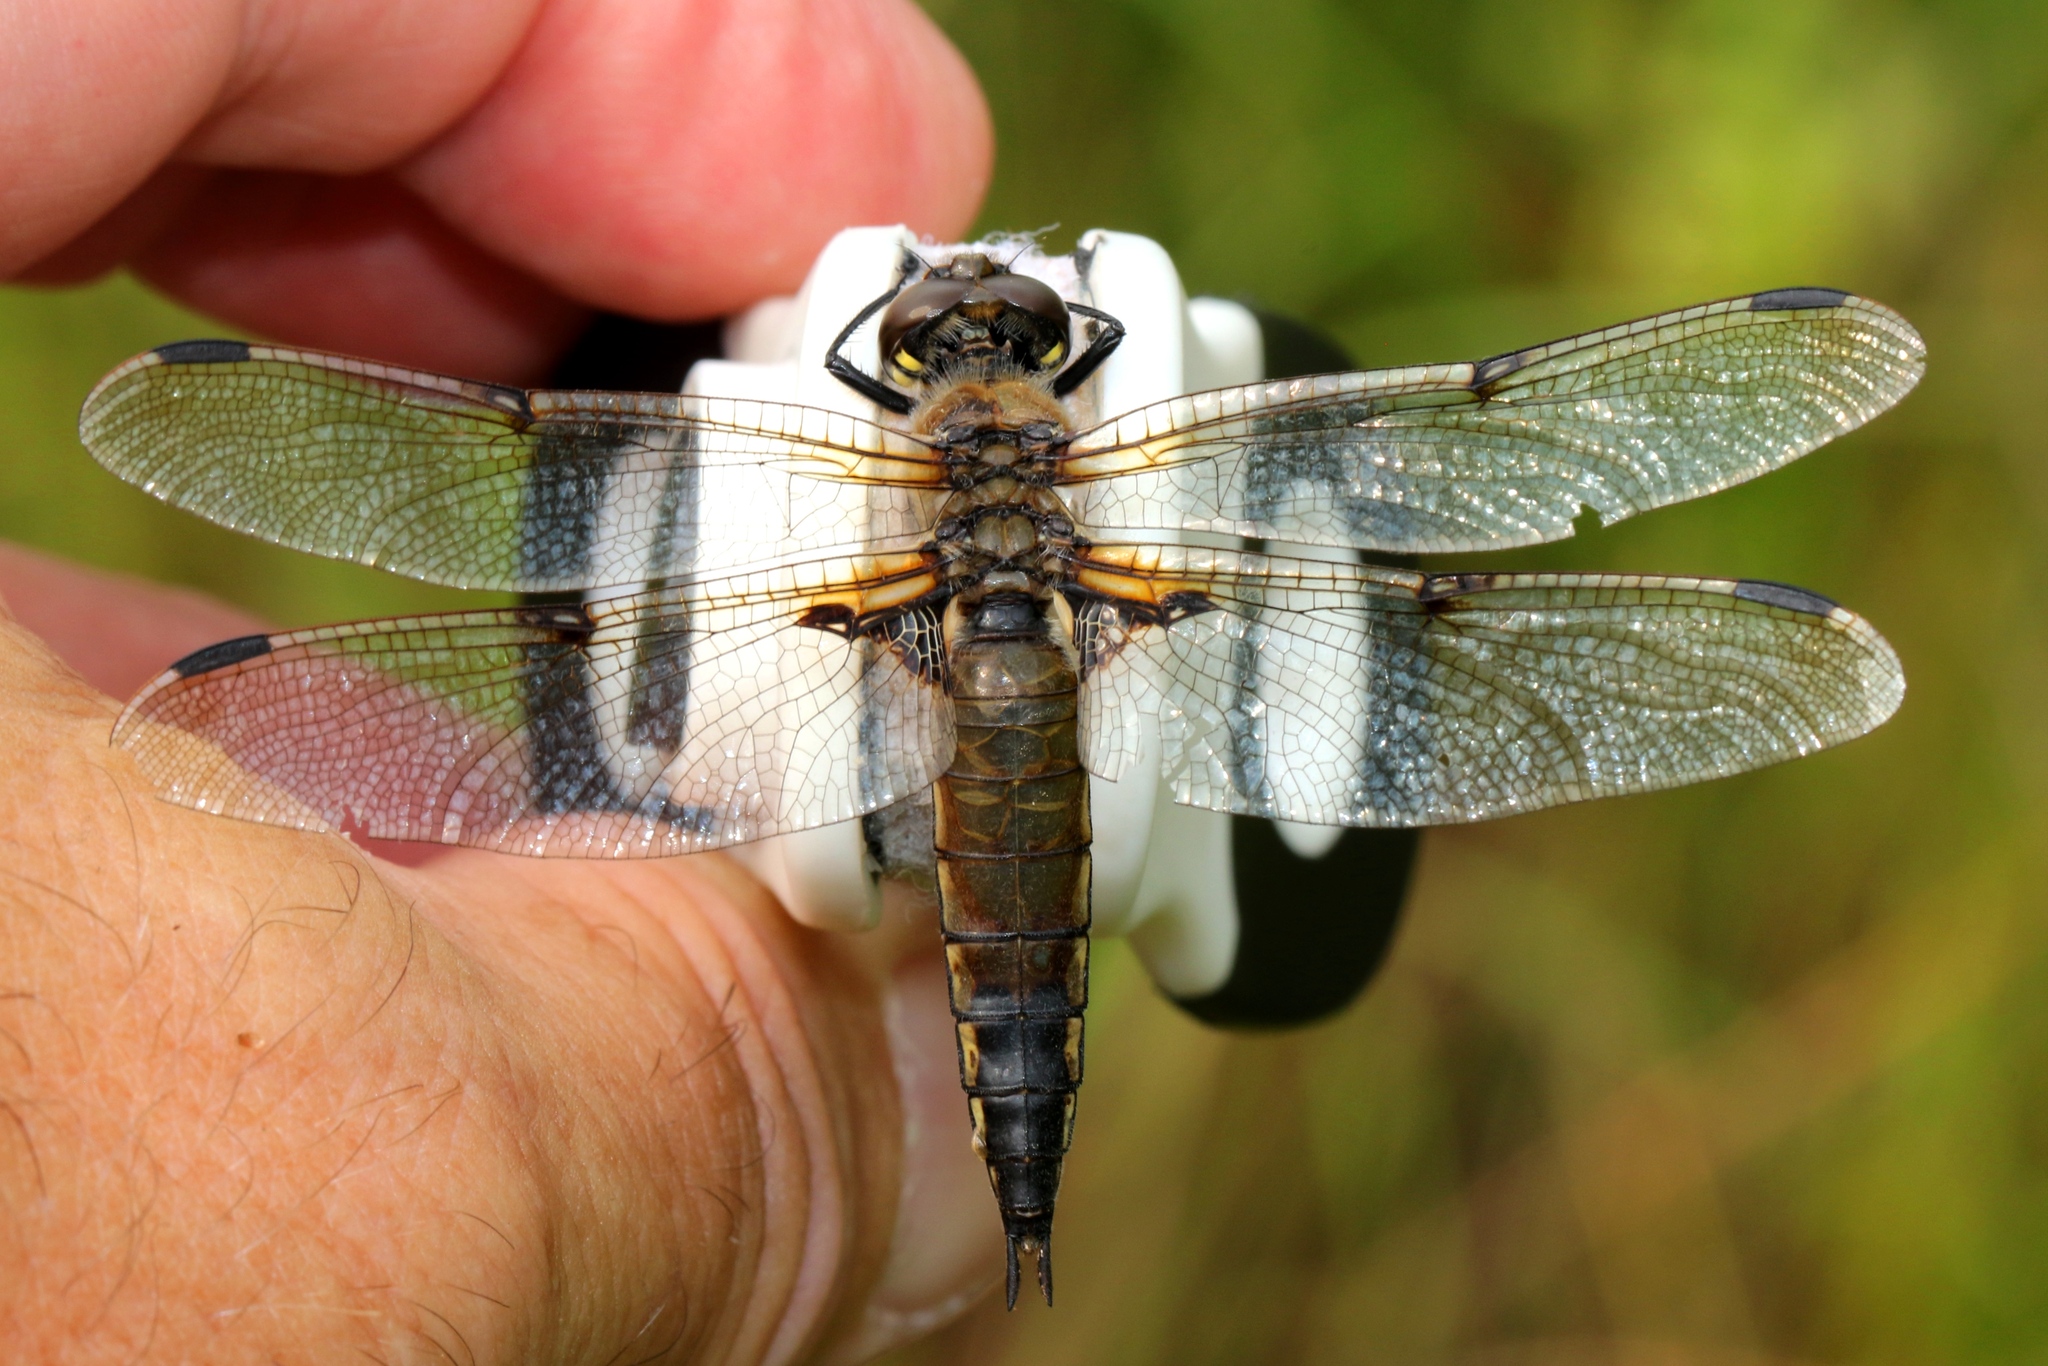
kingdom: Animalia
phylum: Arthropoda
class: Insecta
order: Odonata
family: Libellulidae
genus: Libellula
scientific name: Libellula quadrimaculata
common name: Four-spotted chaser
